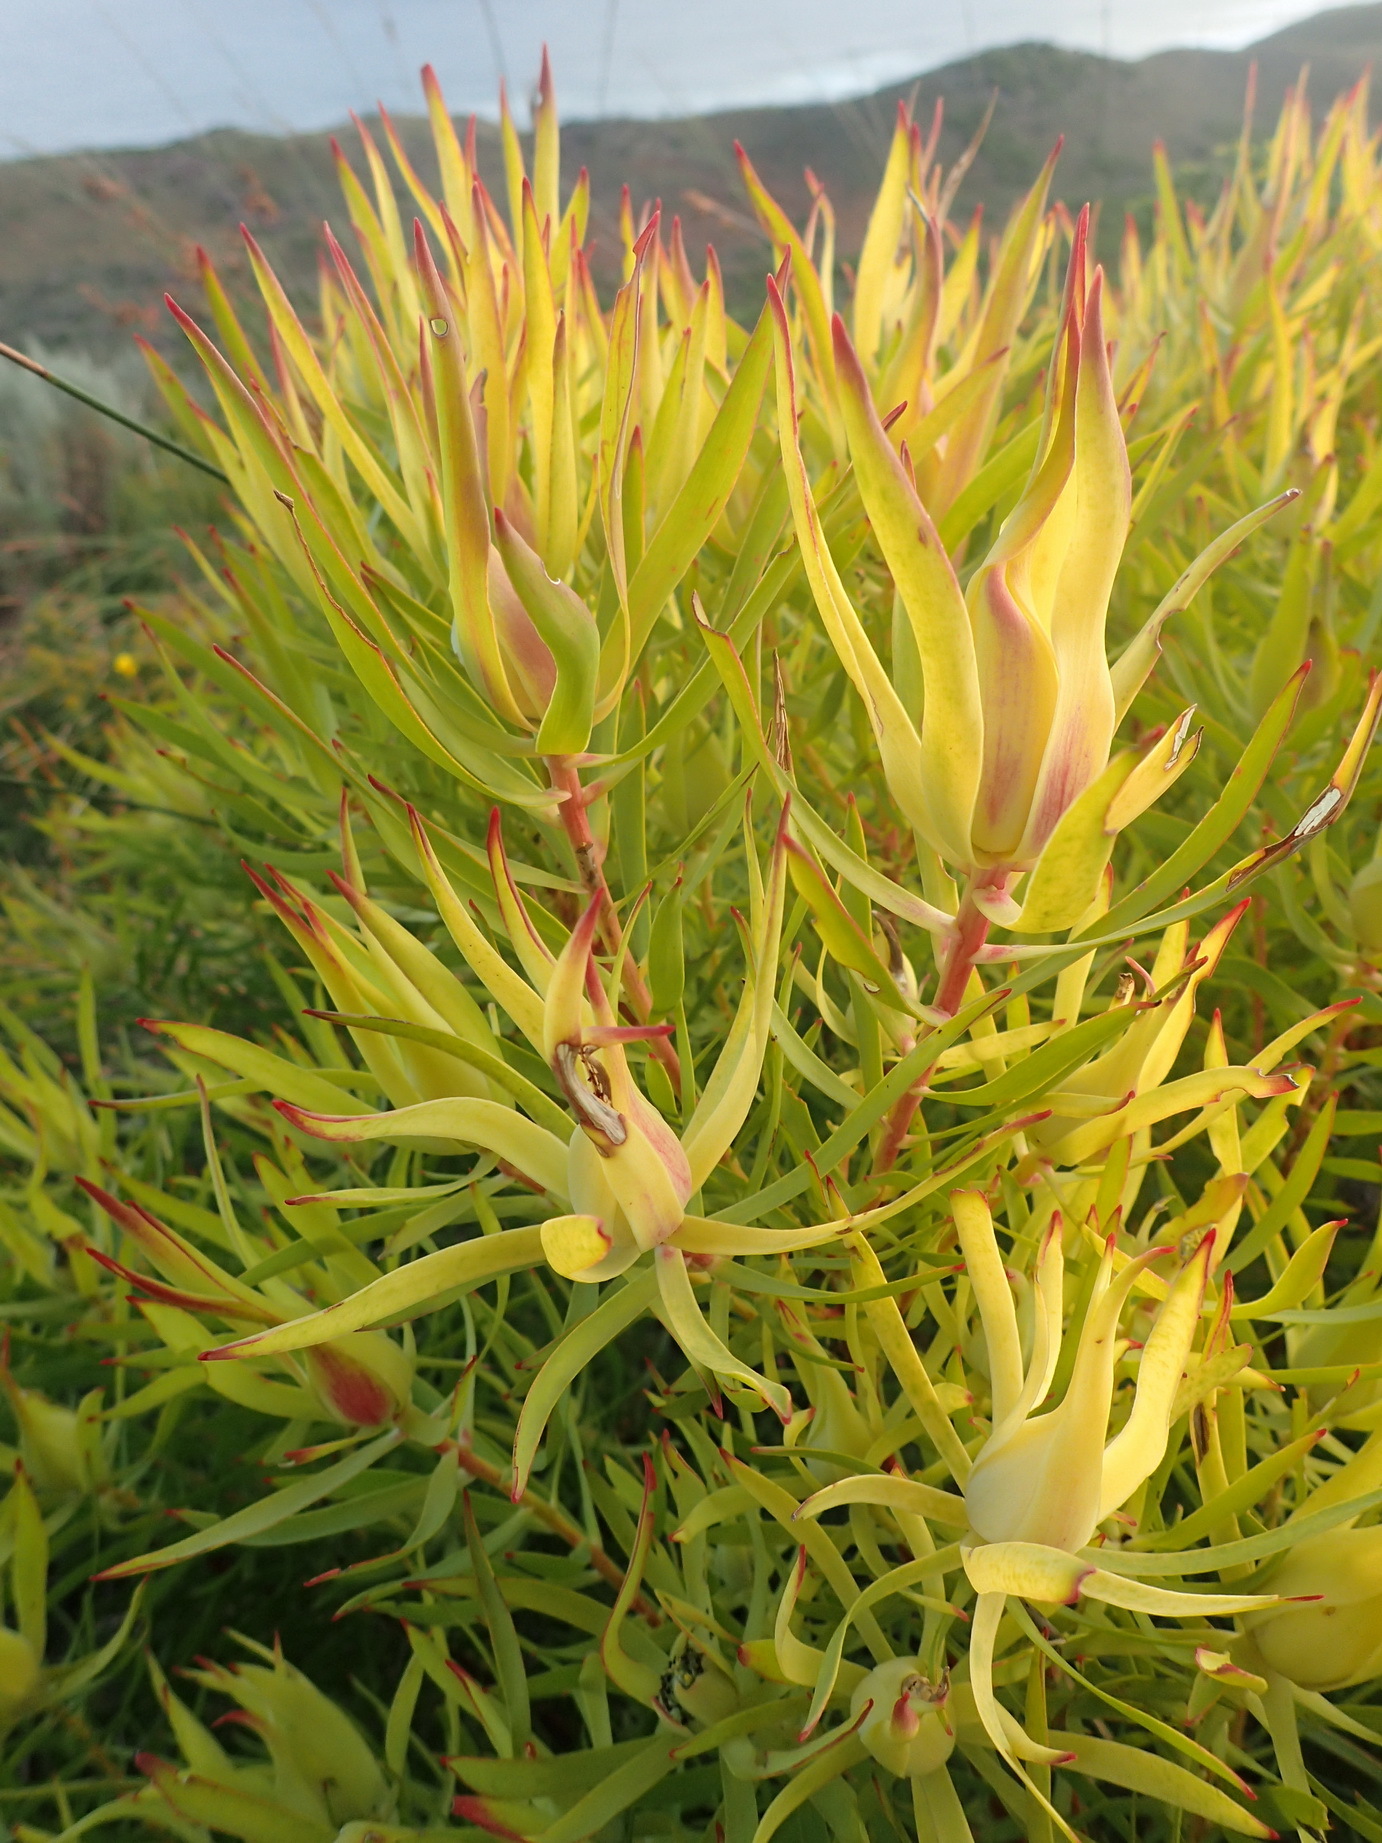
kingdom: Plantae
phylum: Tracheophyta
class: Magnoliopsida
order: Proteales
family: Proteaceae
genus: Leucadendron
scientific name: Leucadendron salignum
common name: Common sunshine conebush
